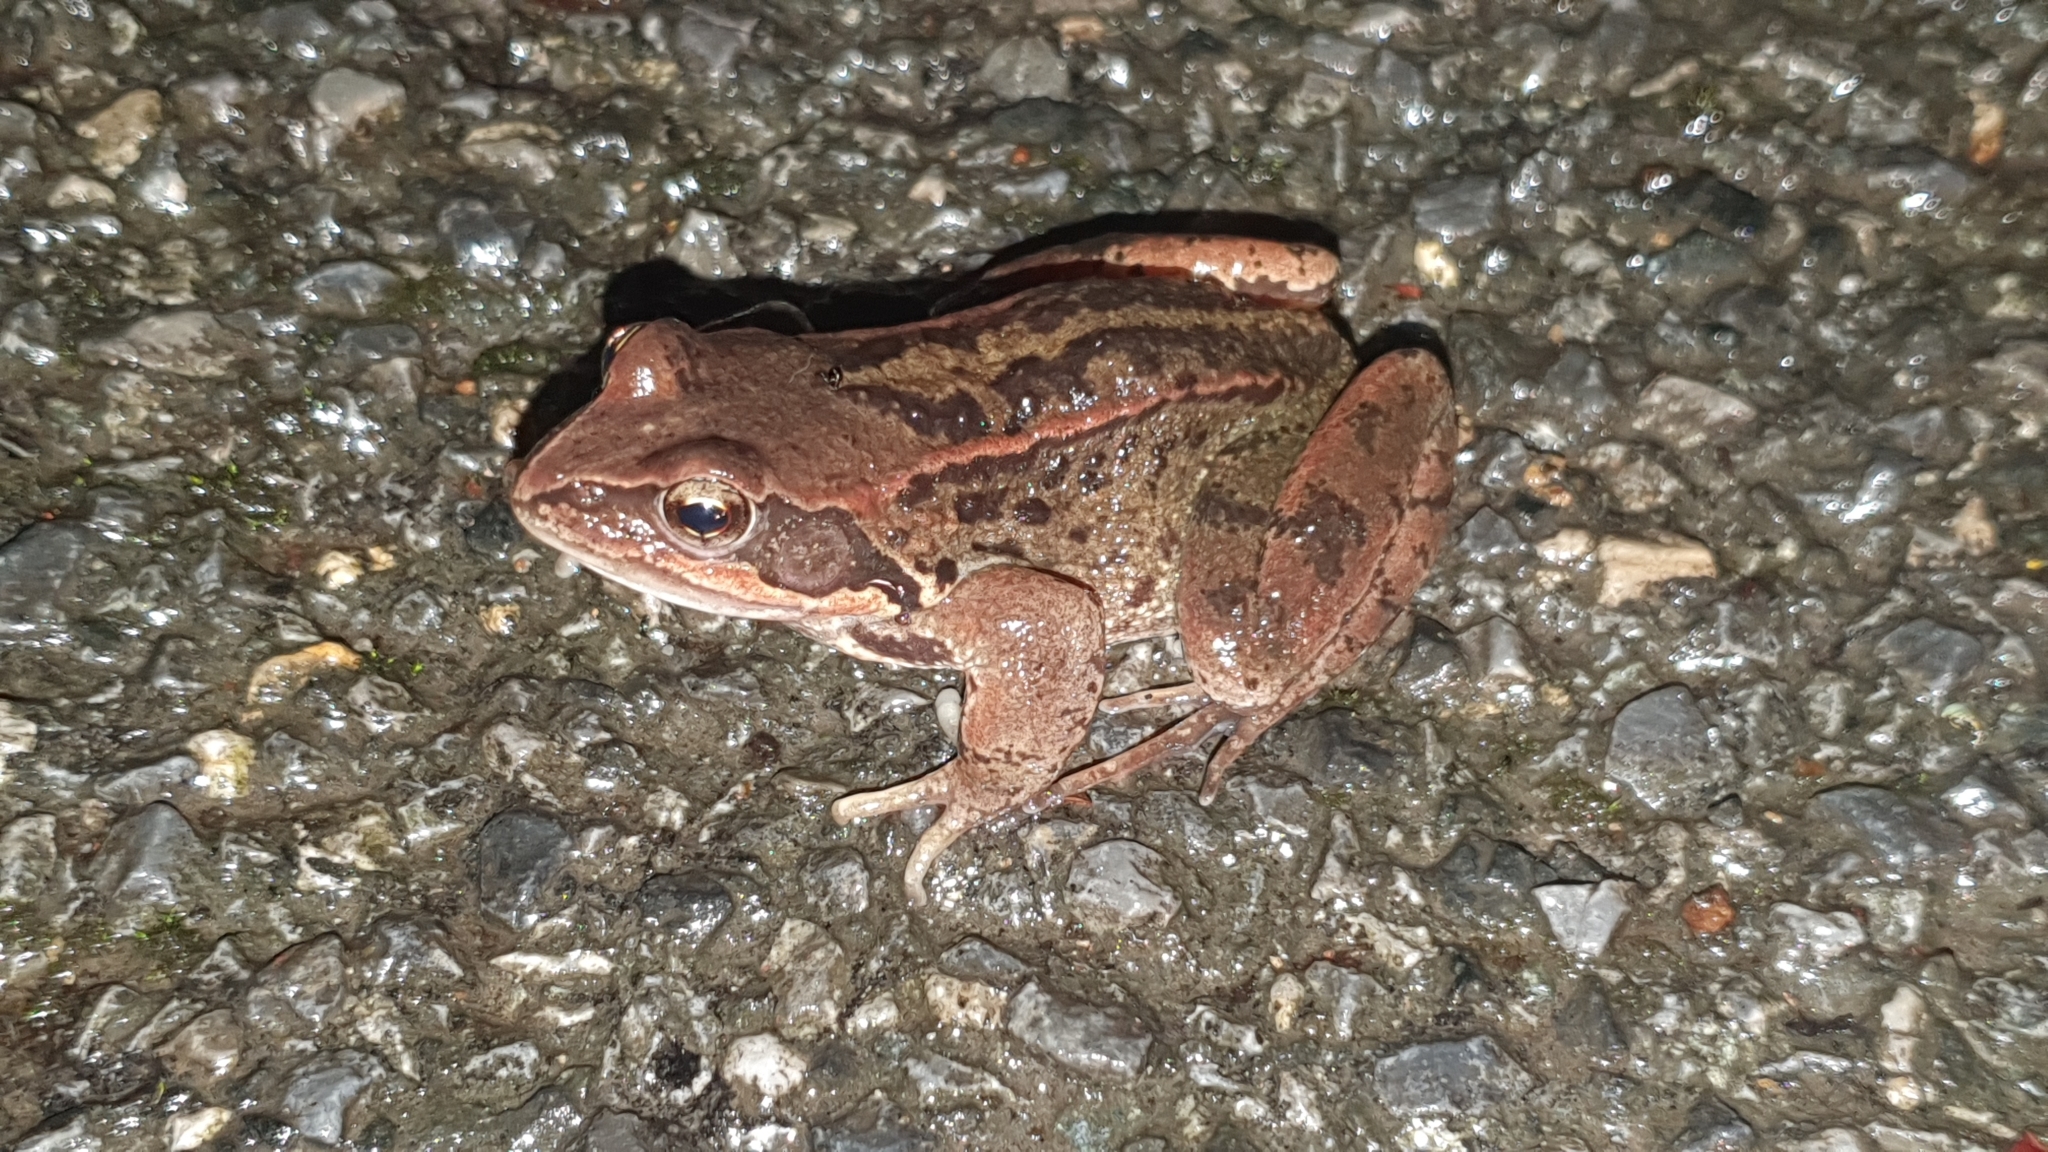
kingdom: Animalia
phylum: Chordata
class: Amphibia
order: Anura
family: Ranidae
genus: Rana
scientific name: Rana temporaria
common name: Common frog
